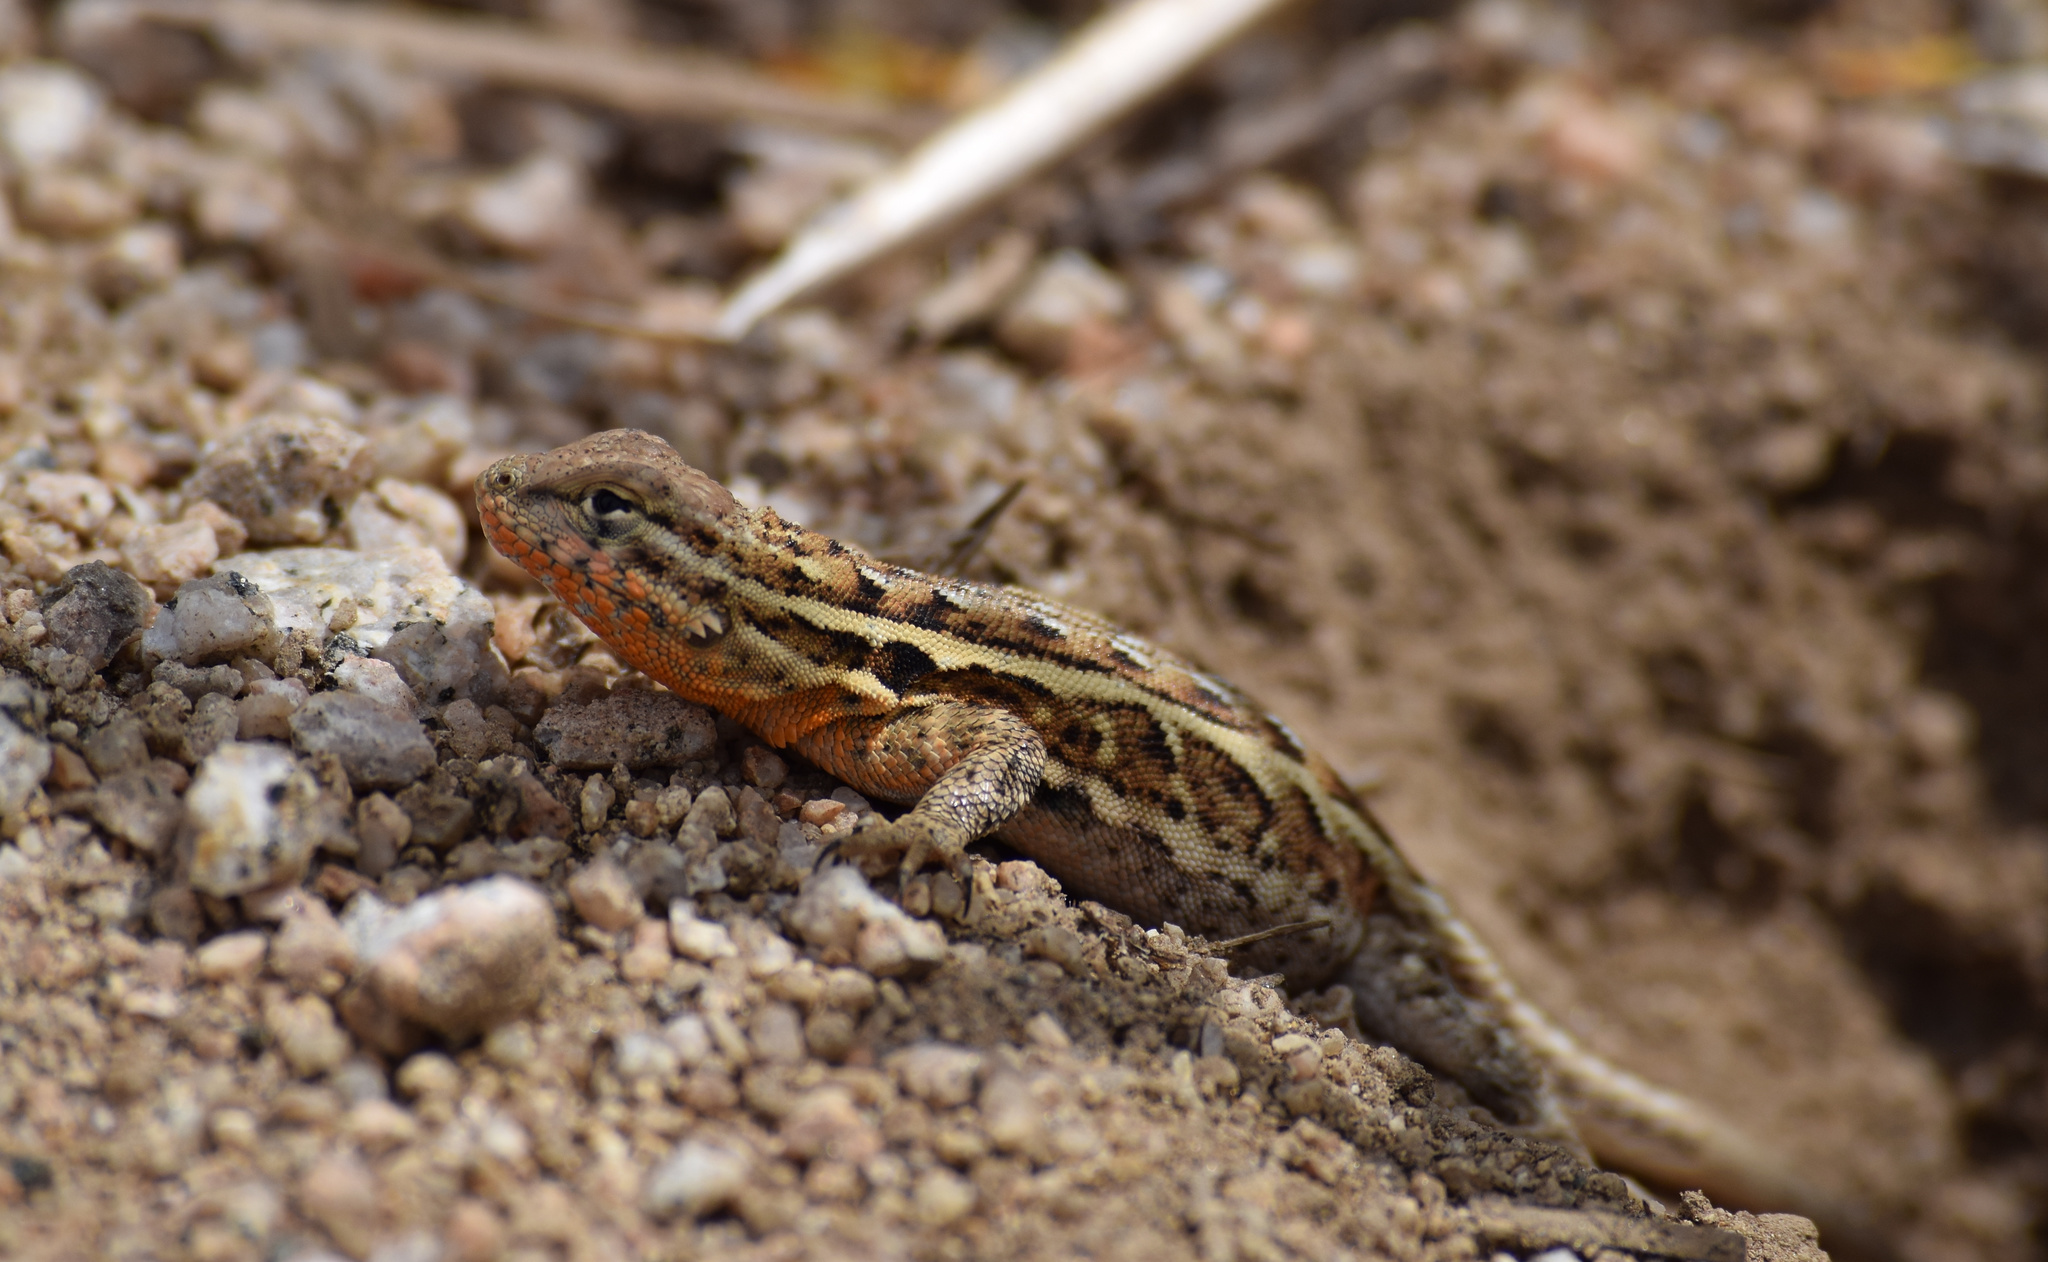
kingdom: Animalia
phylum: Chordata
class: Squamata
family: Phrynosomatidae
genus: Uta
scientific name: Uta stansburiana
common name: Side-blotched lizard
